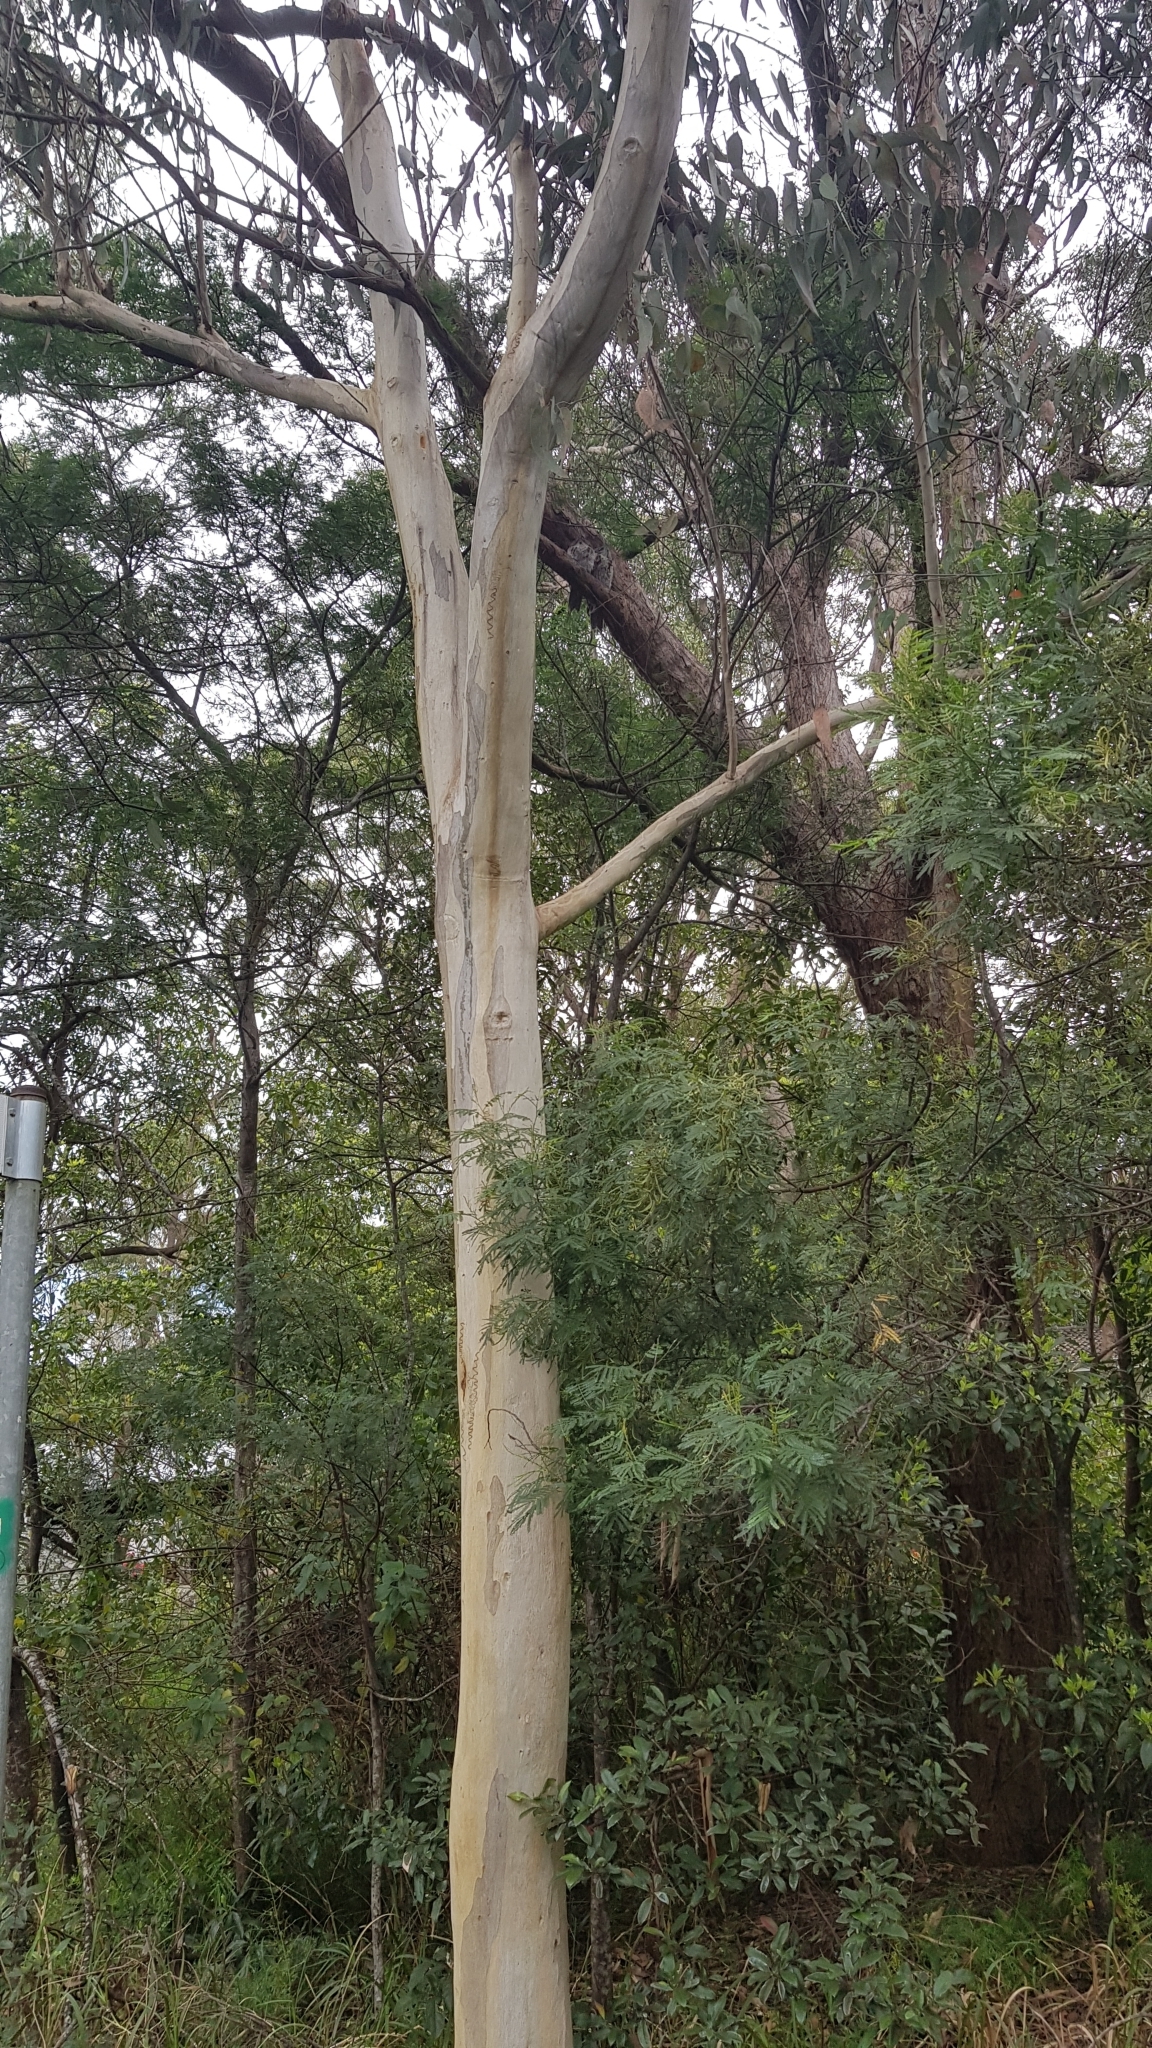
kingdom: Animalia
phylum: Chordata
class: Aves
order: Caprimulgiformes
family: Podargidae
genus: Podargus
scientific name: Podargus strigoides
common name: Tawny frogmouth
